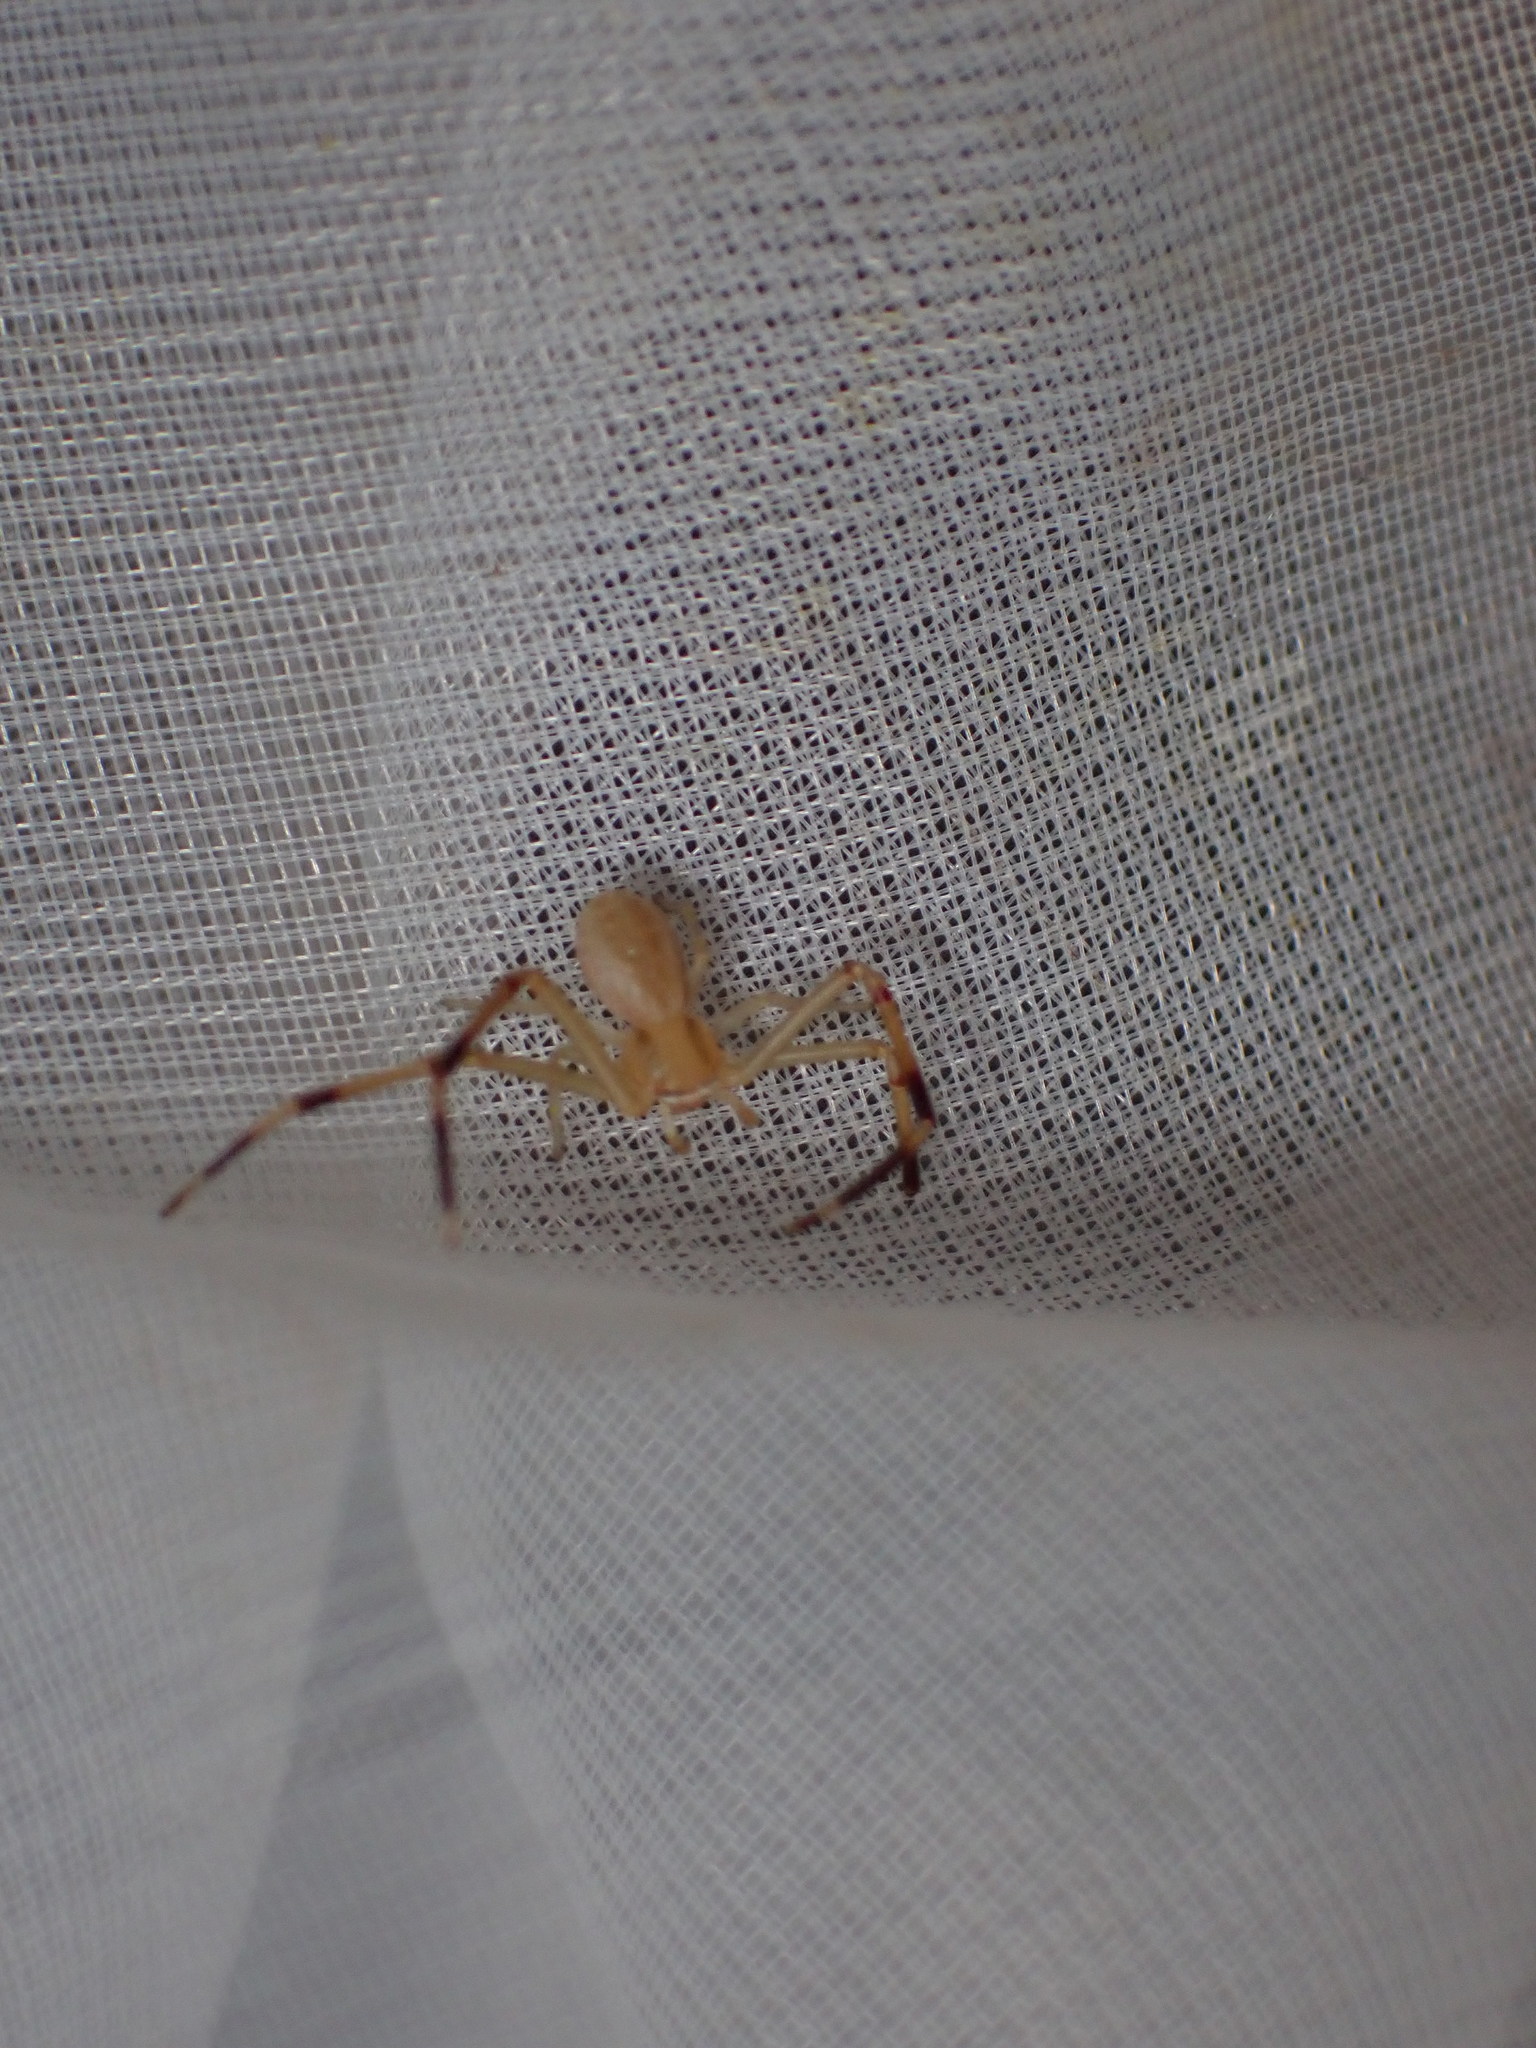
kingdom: Animalia
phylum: Arthropoda
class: Arachnida
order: Araneae
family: Thomisidae
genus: Runcinia
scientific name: Runcinia grammica
